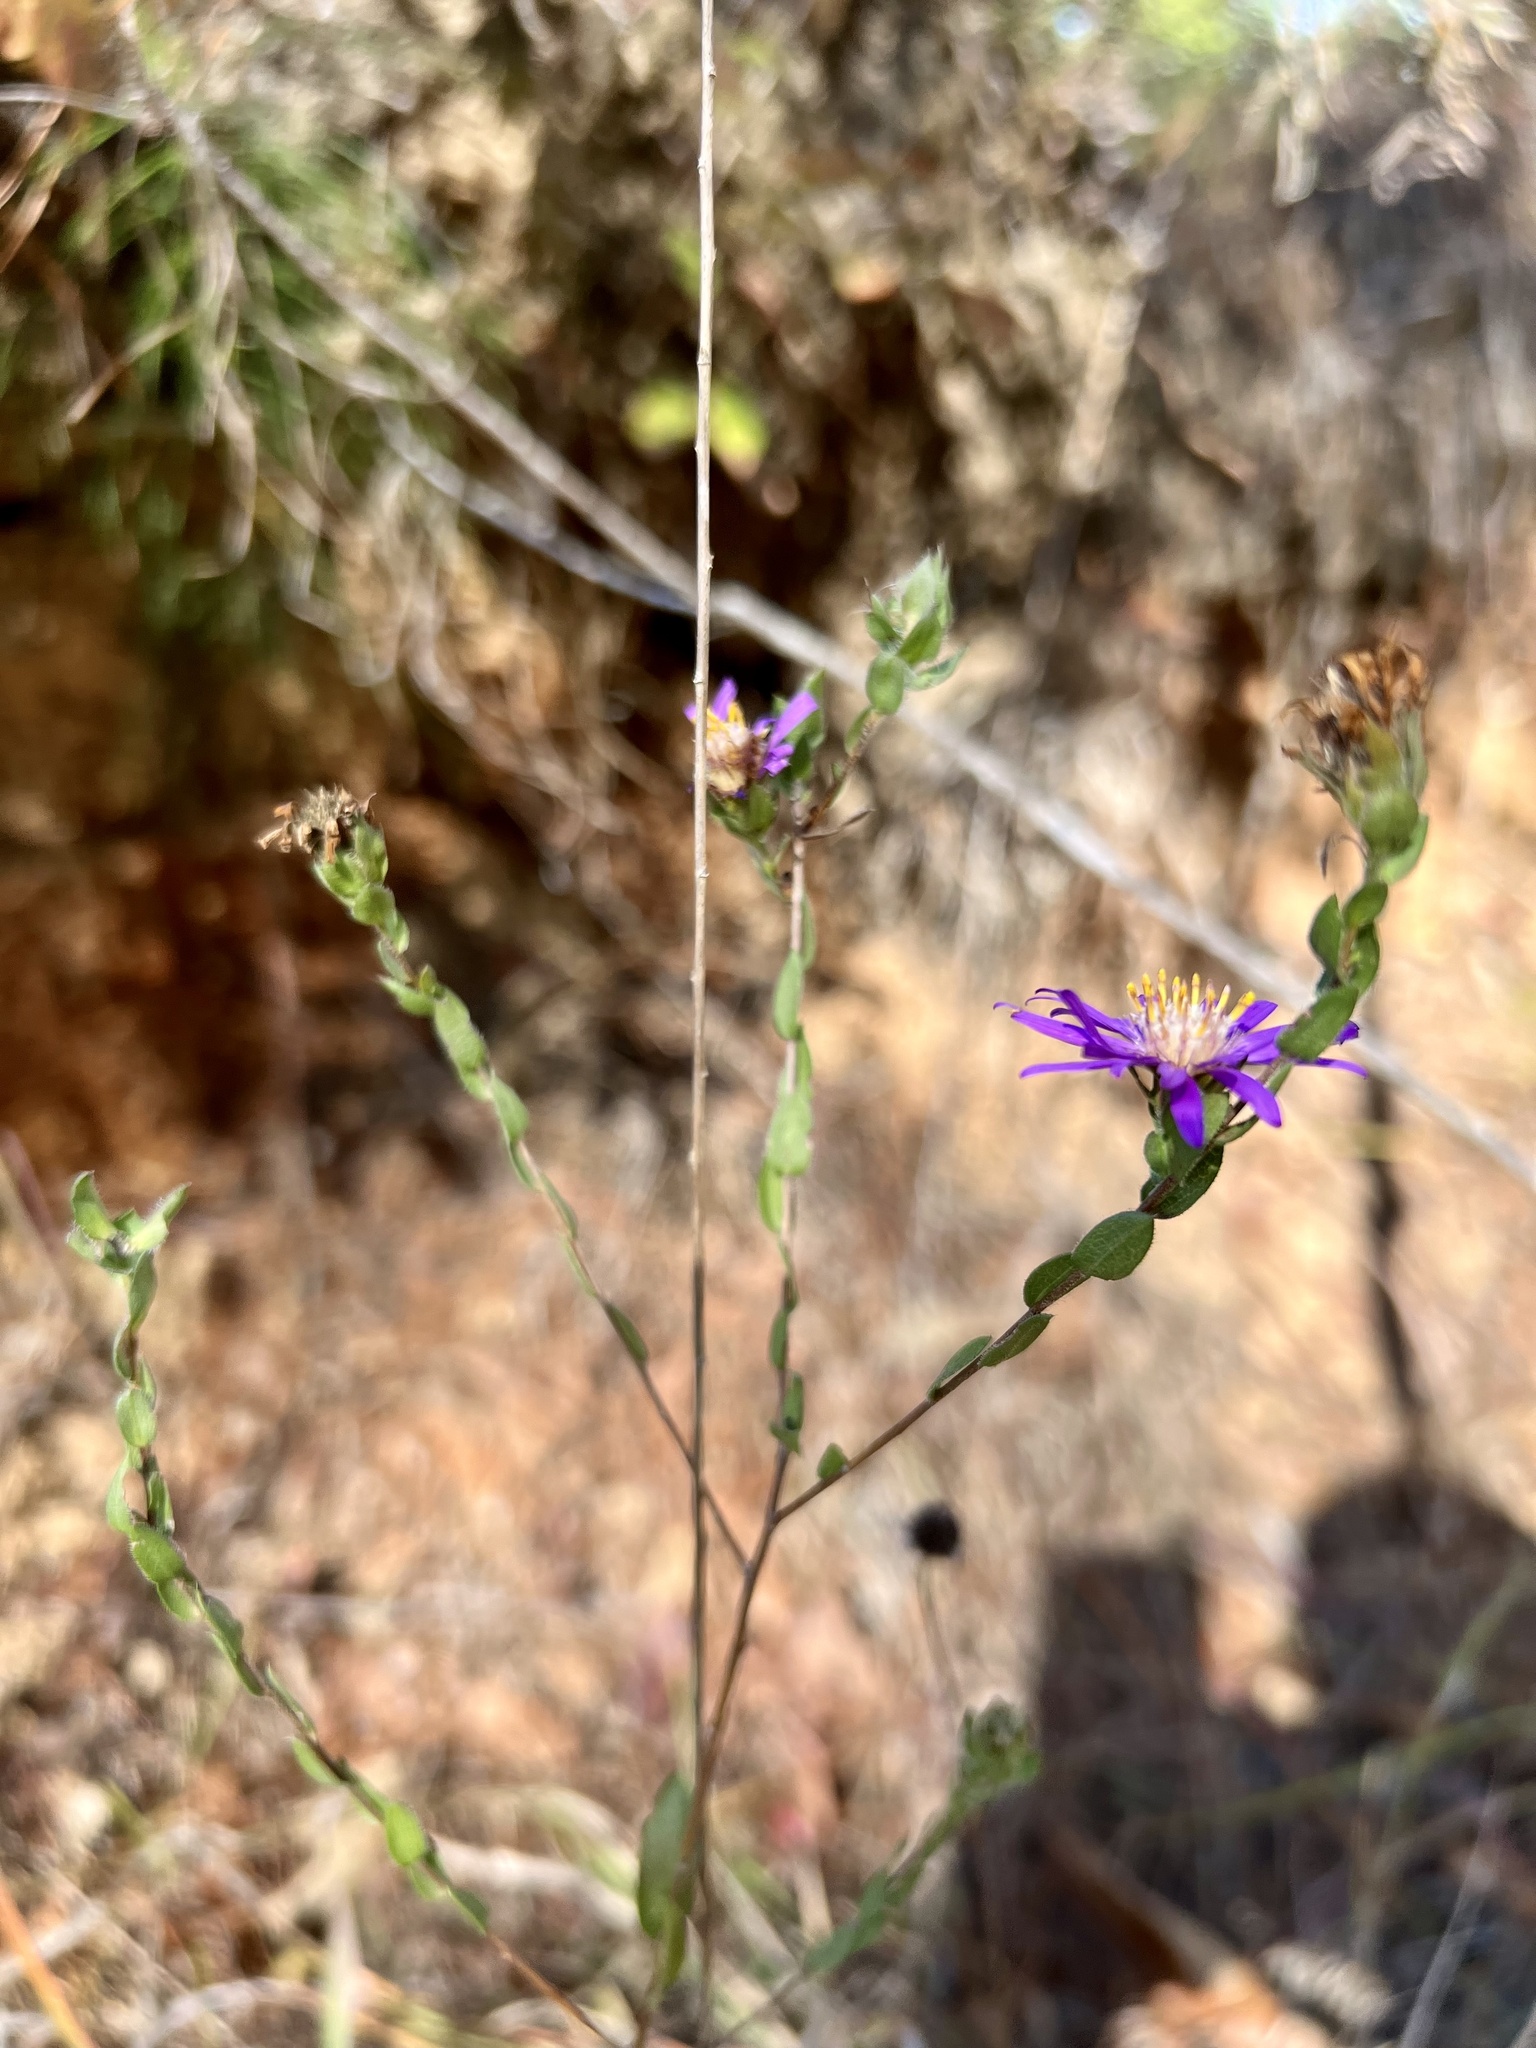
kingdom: Plantae
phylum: Tracheophyta
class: Magnoliopsida
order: Asterales
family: Asteraceae
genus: Symphyotrichum
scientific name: Symphyotrichum pratense
